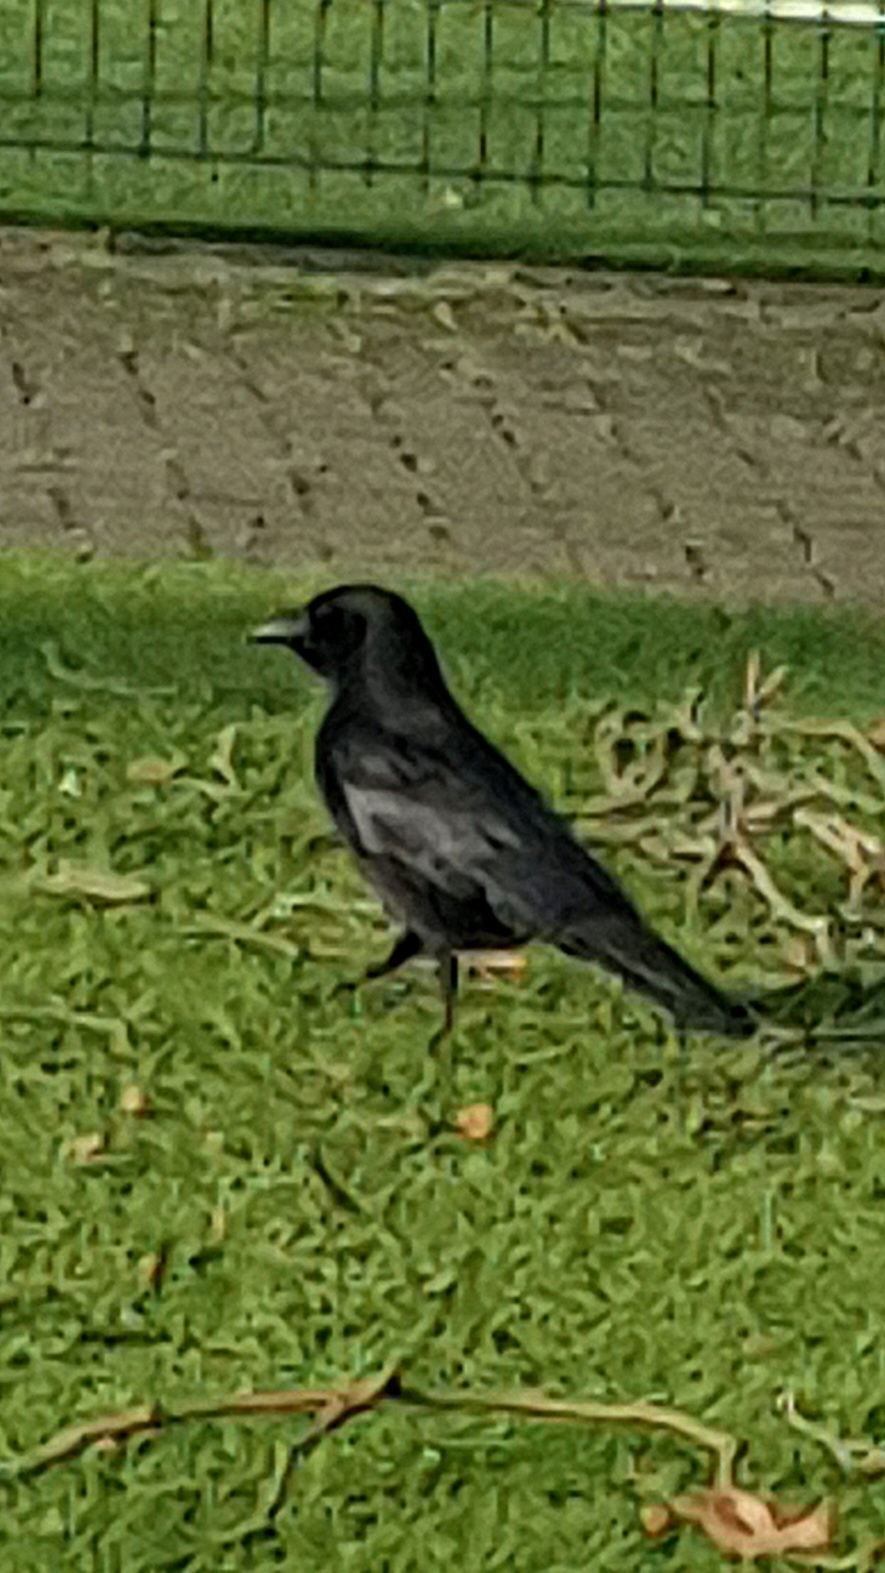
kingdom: Animalia
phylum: Chordata
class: Aves
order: Passeriformes
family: Corvidae
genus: Corvus
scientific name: Corvus corone
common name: Carrion crow
